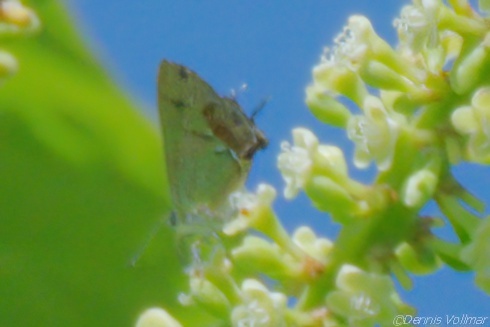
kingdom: Animalia
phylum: Arthropoda
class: Insecta
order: Lepidoptera
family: Lycaenidae
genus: Thecla
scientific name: Thecla maesites
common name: Verde azul hairstreak
